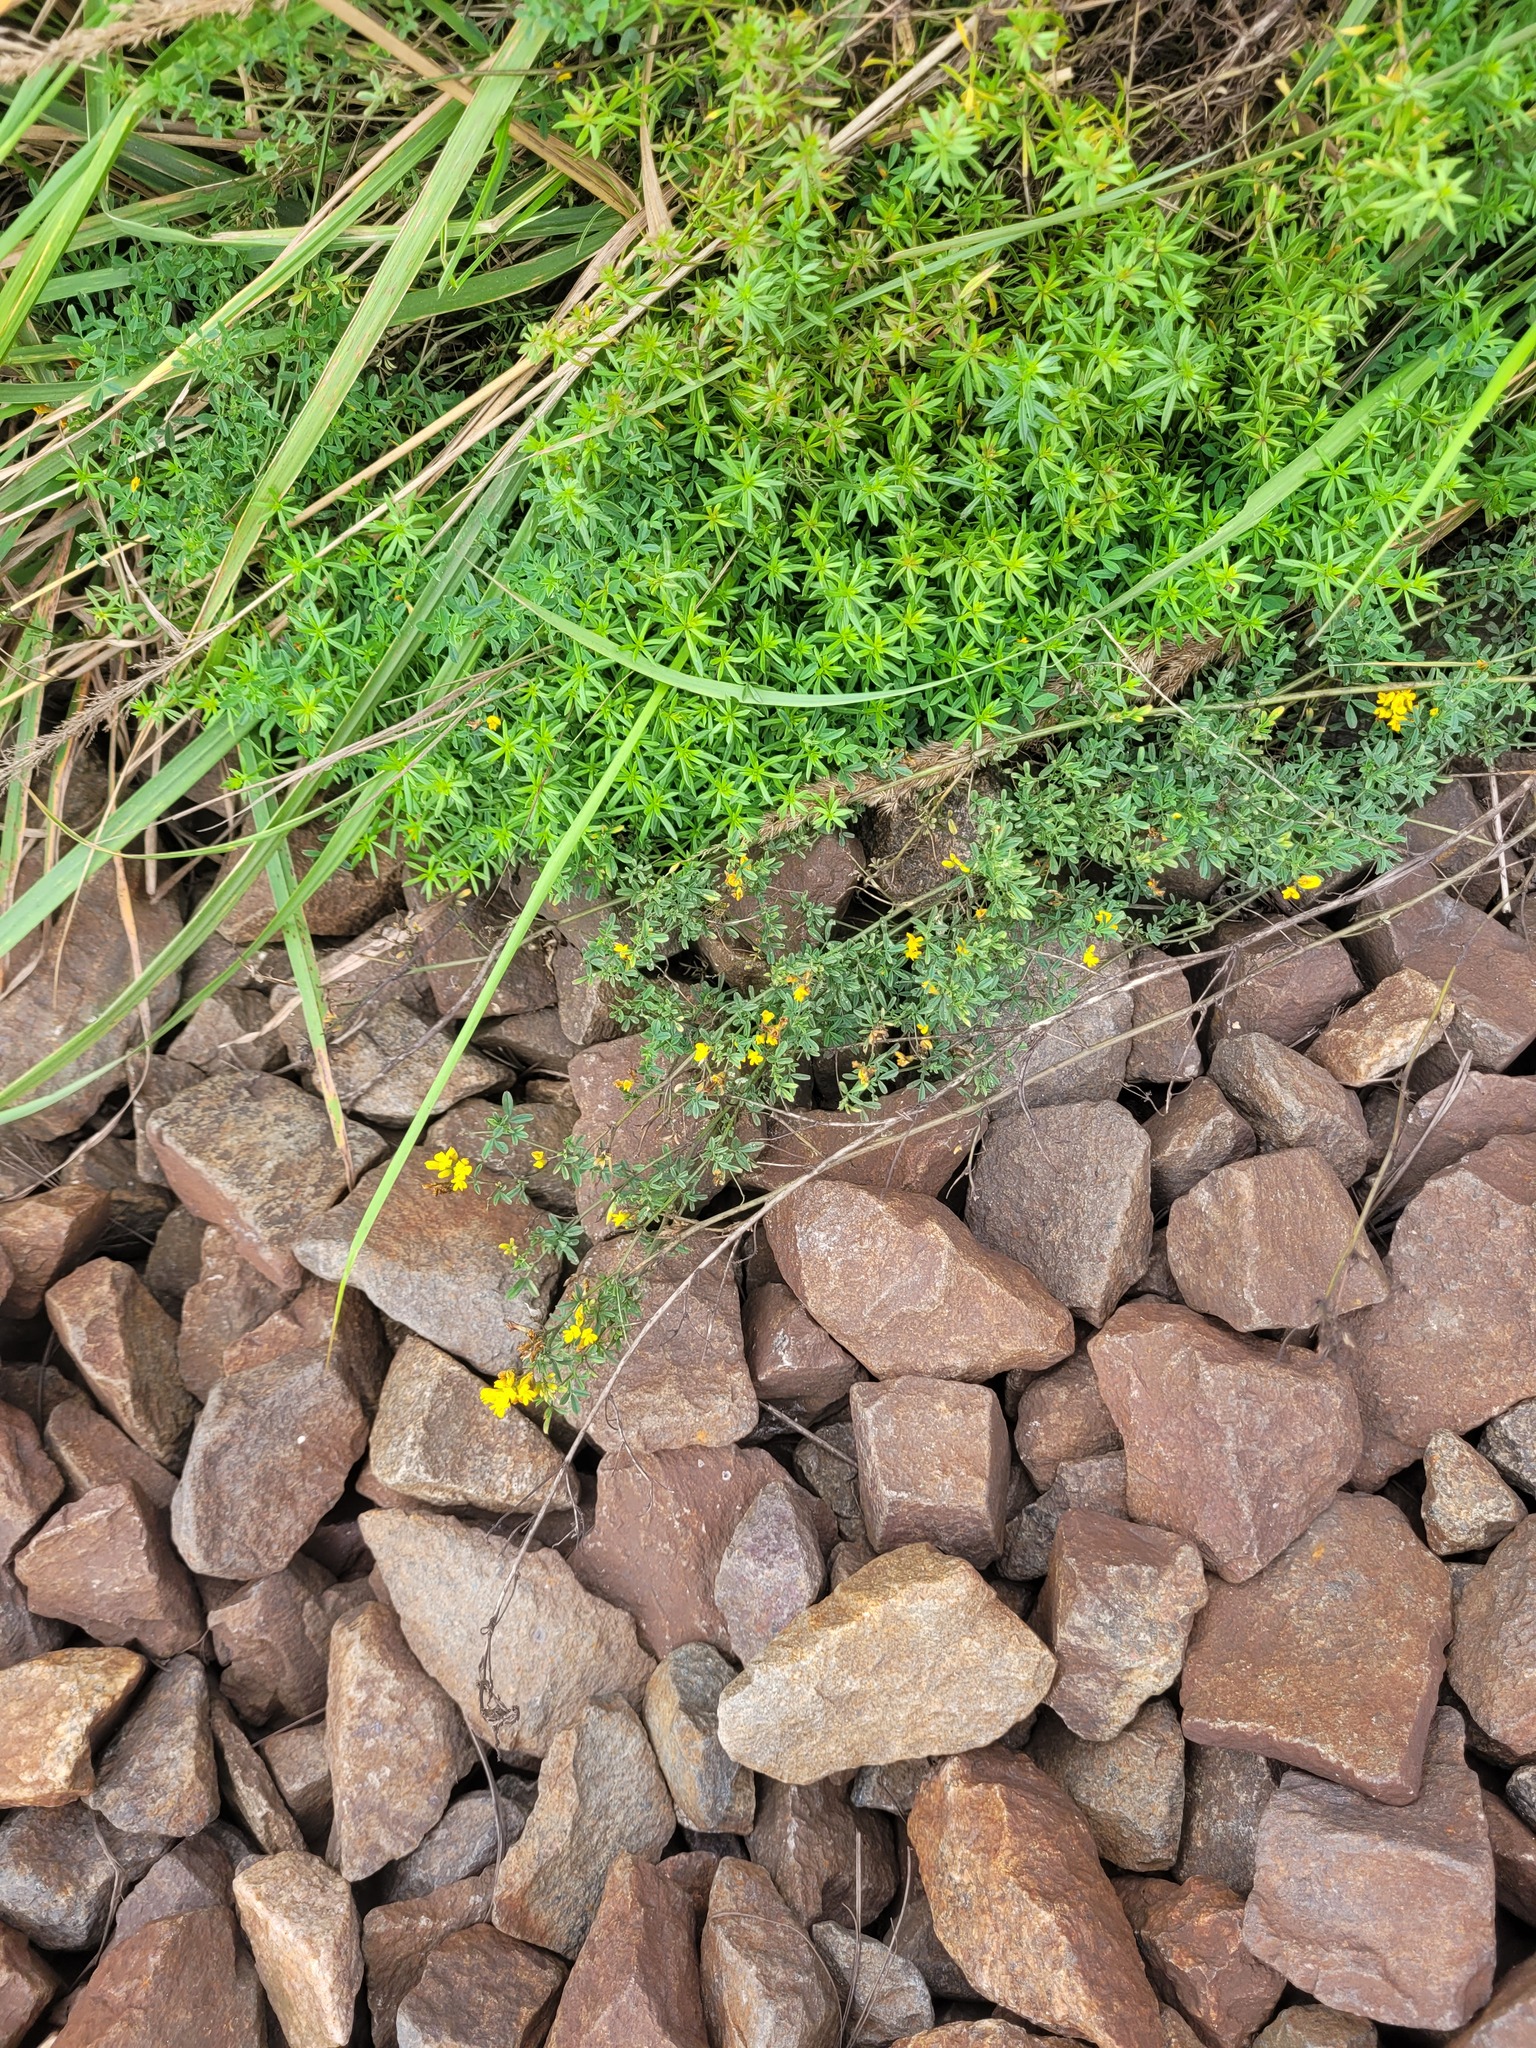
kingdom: Plantae
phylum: Tracheophyta
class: Magnoliopsida
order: Fabales
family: Fabaceae
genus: Medicago
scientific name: Medicago falcata
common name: Sickle medick
